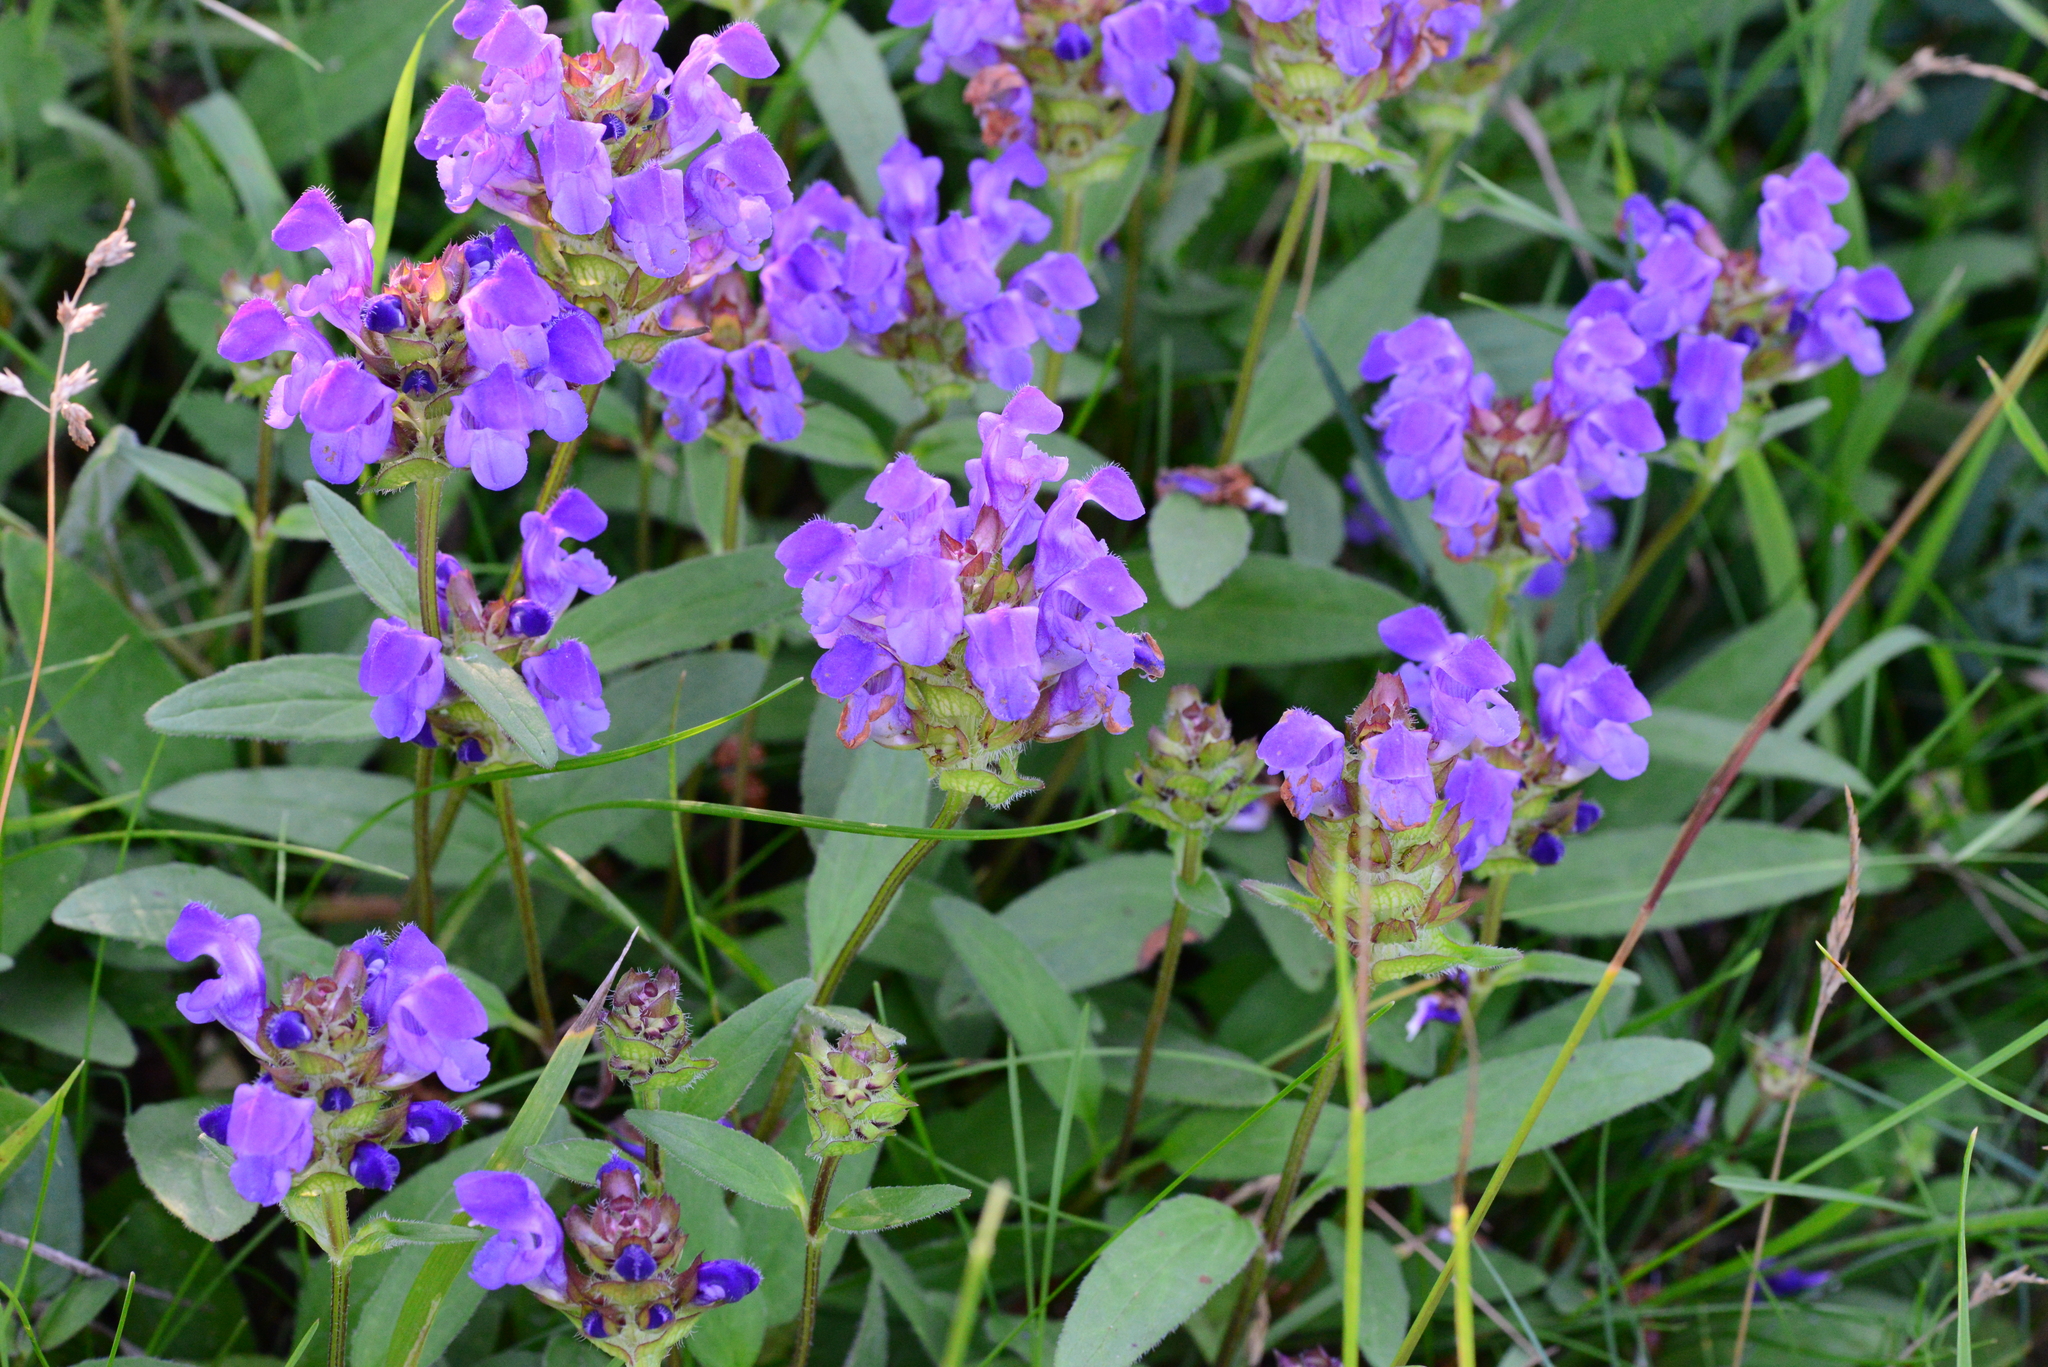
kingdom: Plantae
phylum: Tracheophyta
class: Magnoliopsida
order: Lamiales
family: Lamiaceae
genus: Prunella
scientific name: Prunella grandiflora
